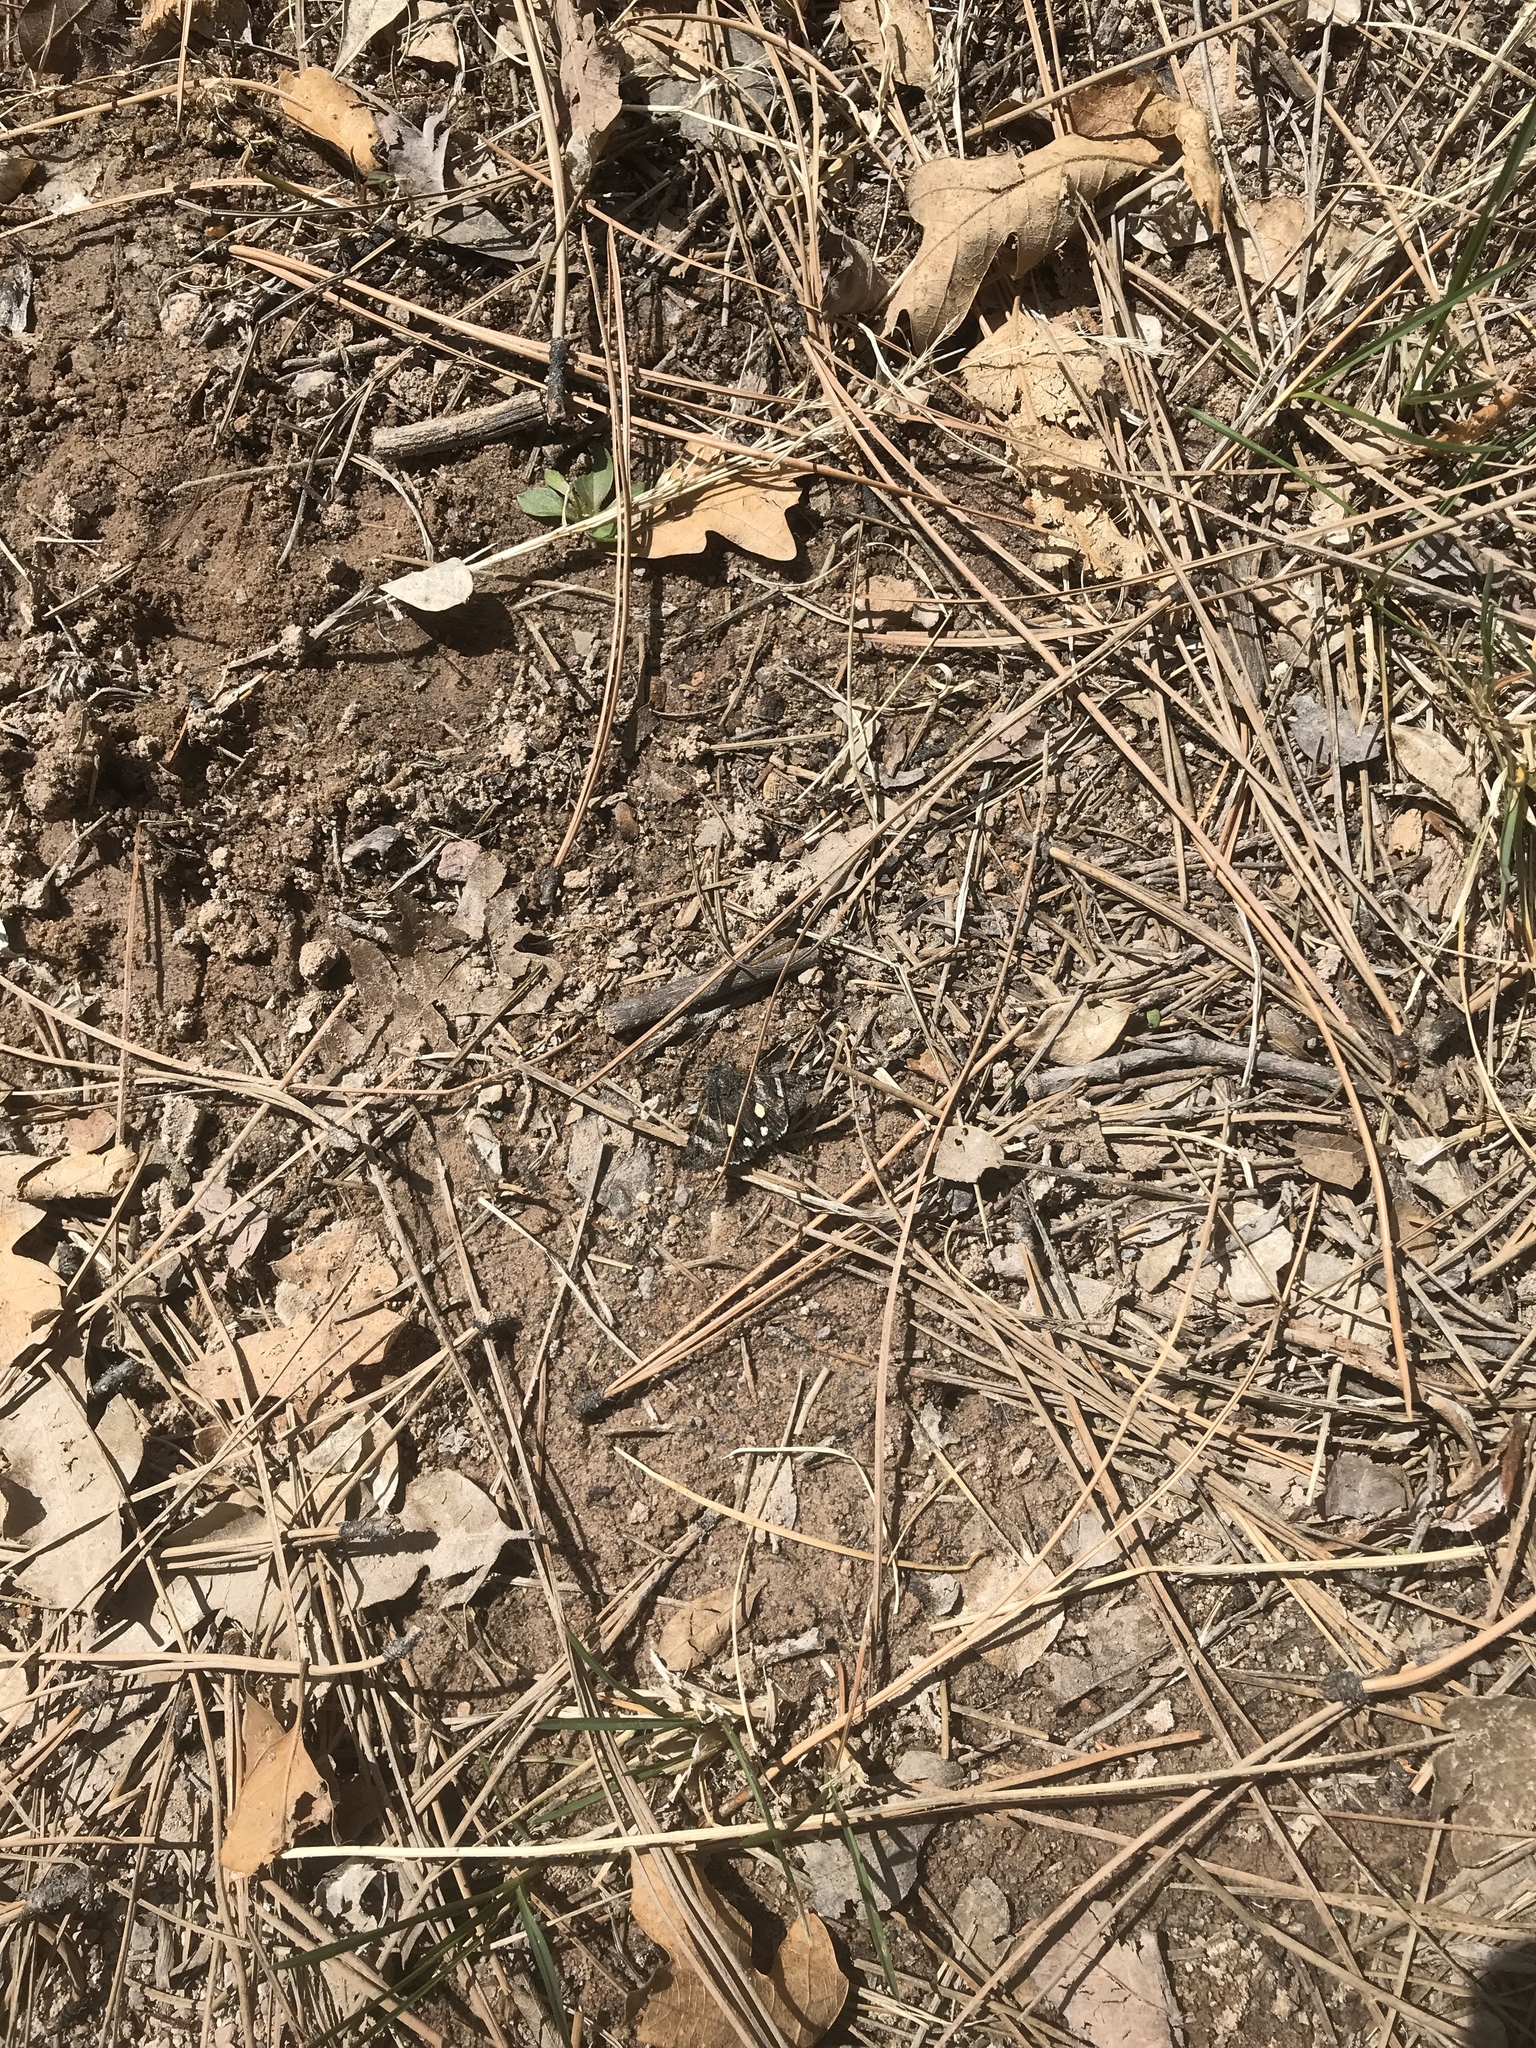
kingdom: Animalia
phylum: Arthropoda
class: Insecta
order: Lepidoptera
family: Erebidae
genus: Litocala
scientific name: Litocala sexsignata
